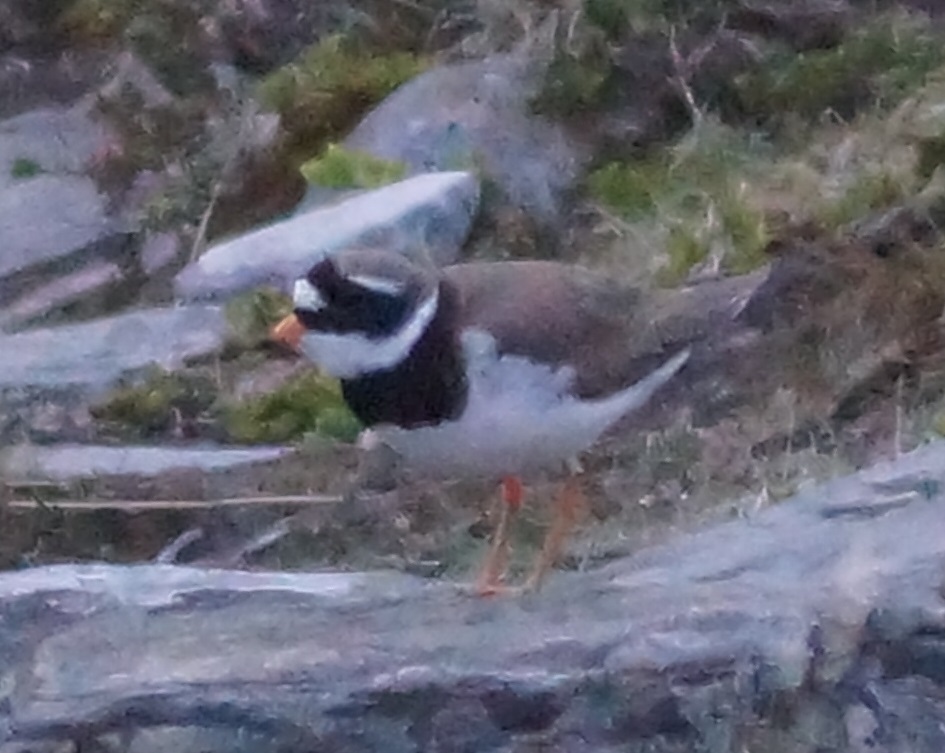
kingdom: Animalia
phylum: Chordata
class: Aves
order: Charadriiformes
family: Charadriidae
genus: Charadrius
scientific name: Charadrius hiaticula
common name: Common ringed plover
